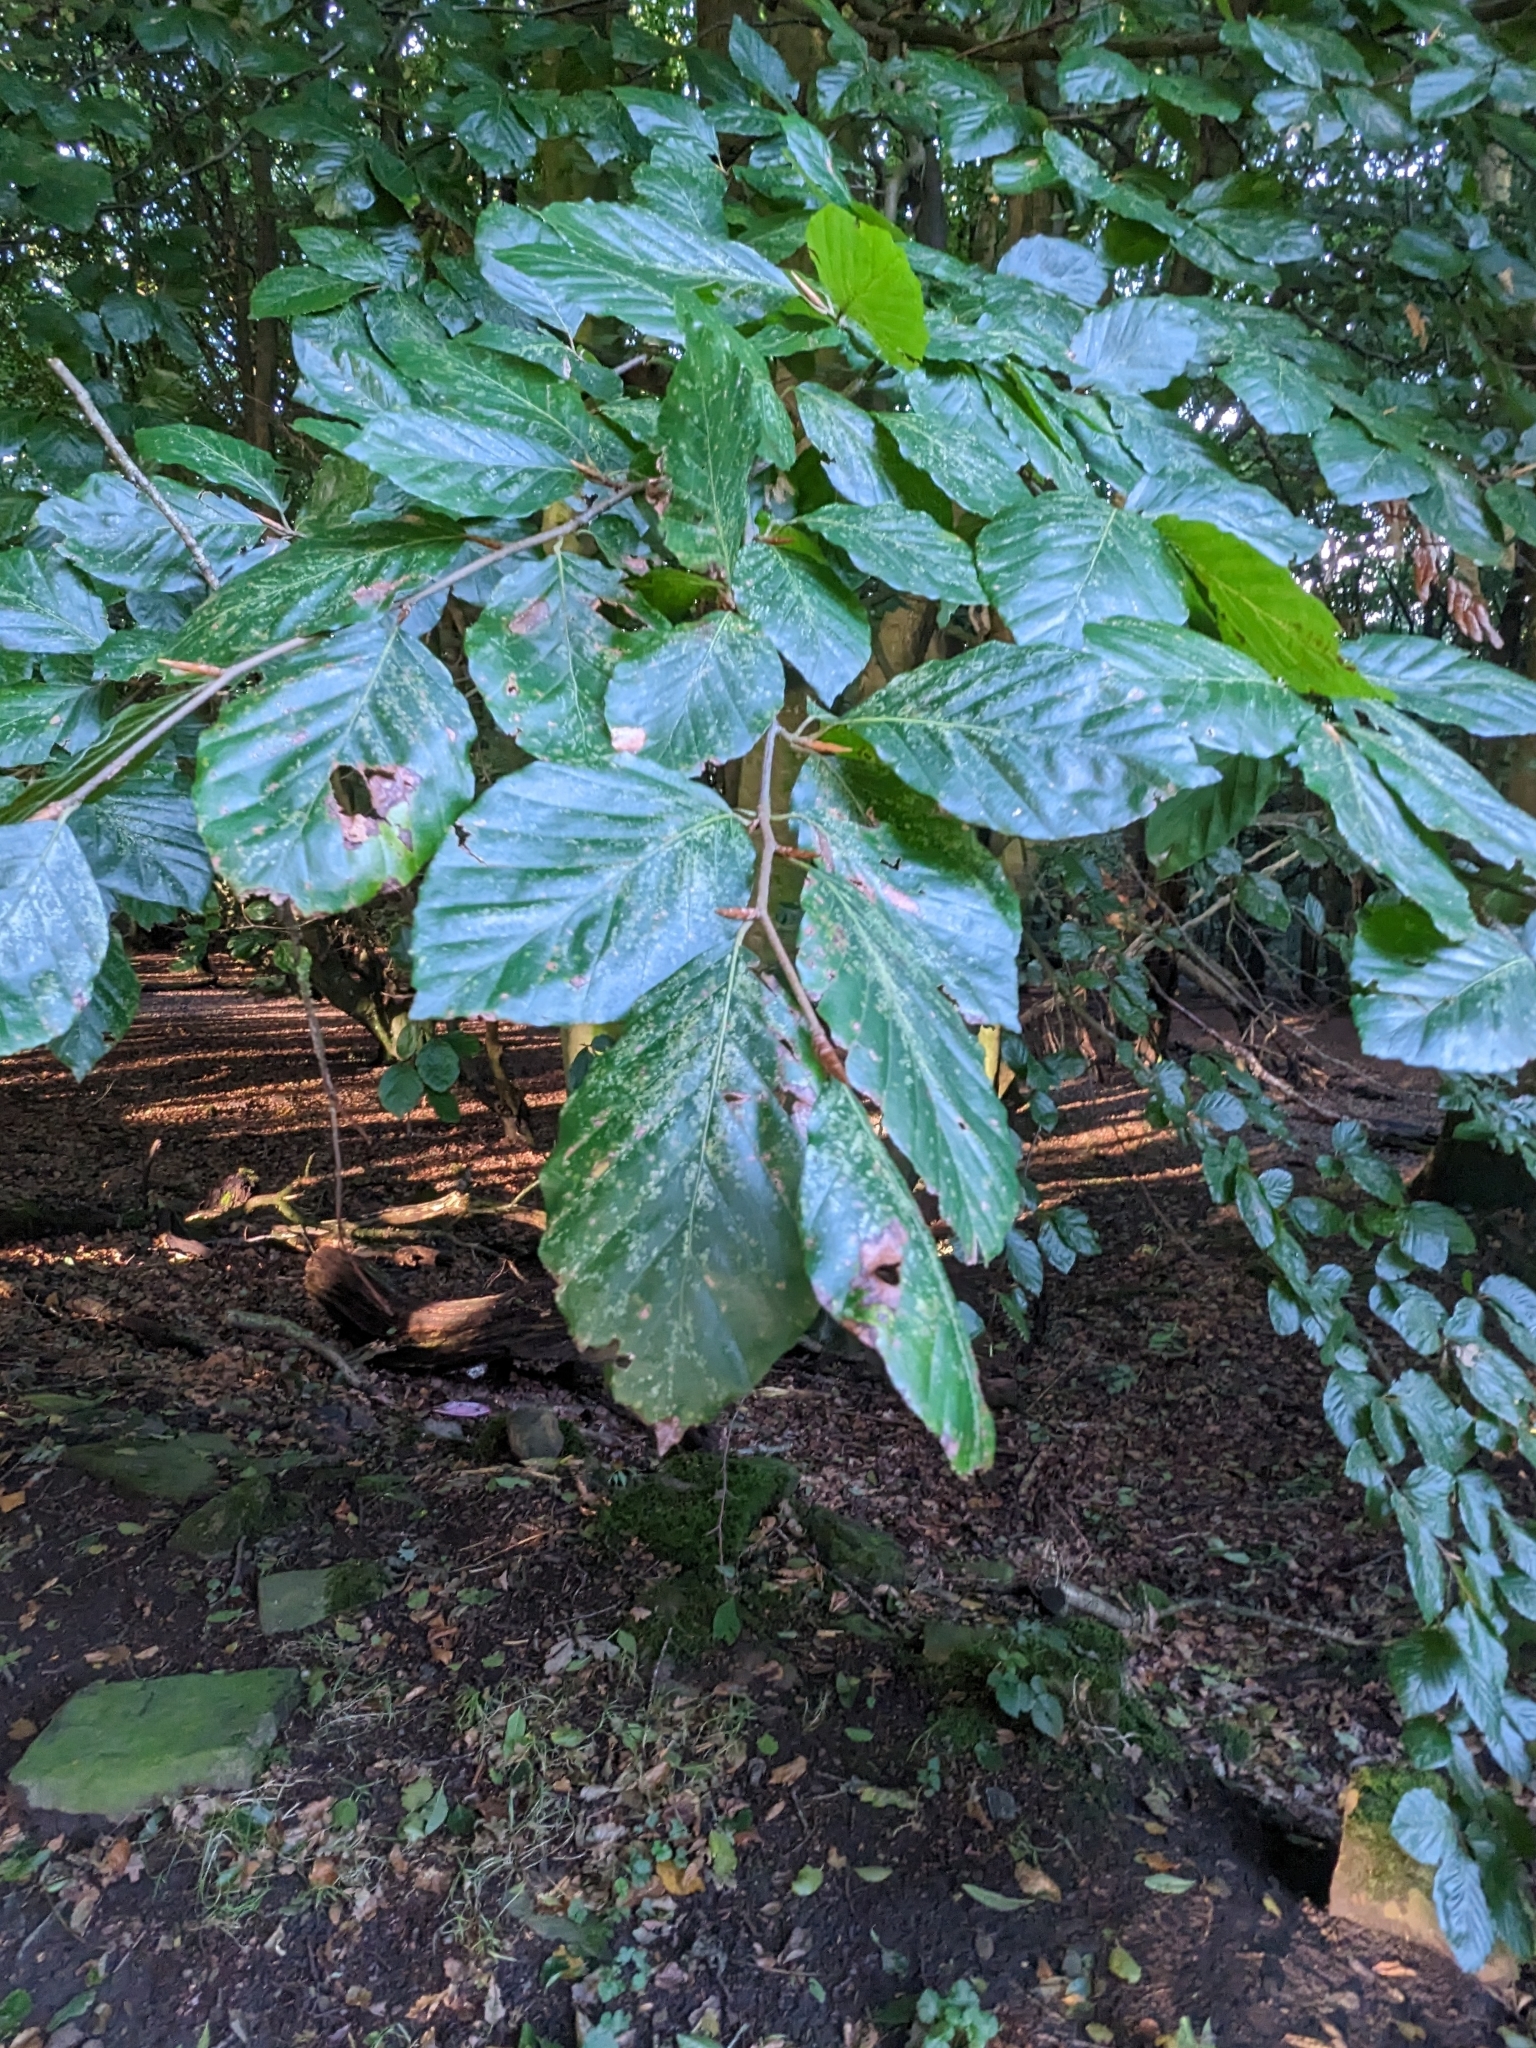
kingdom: Plantae
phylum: Tracheophyta
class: Magnoliopsida
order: Fagales
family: Fagaceae
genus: Fagus
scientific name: Fagus sylvatica
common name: Beech
